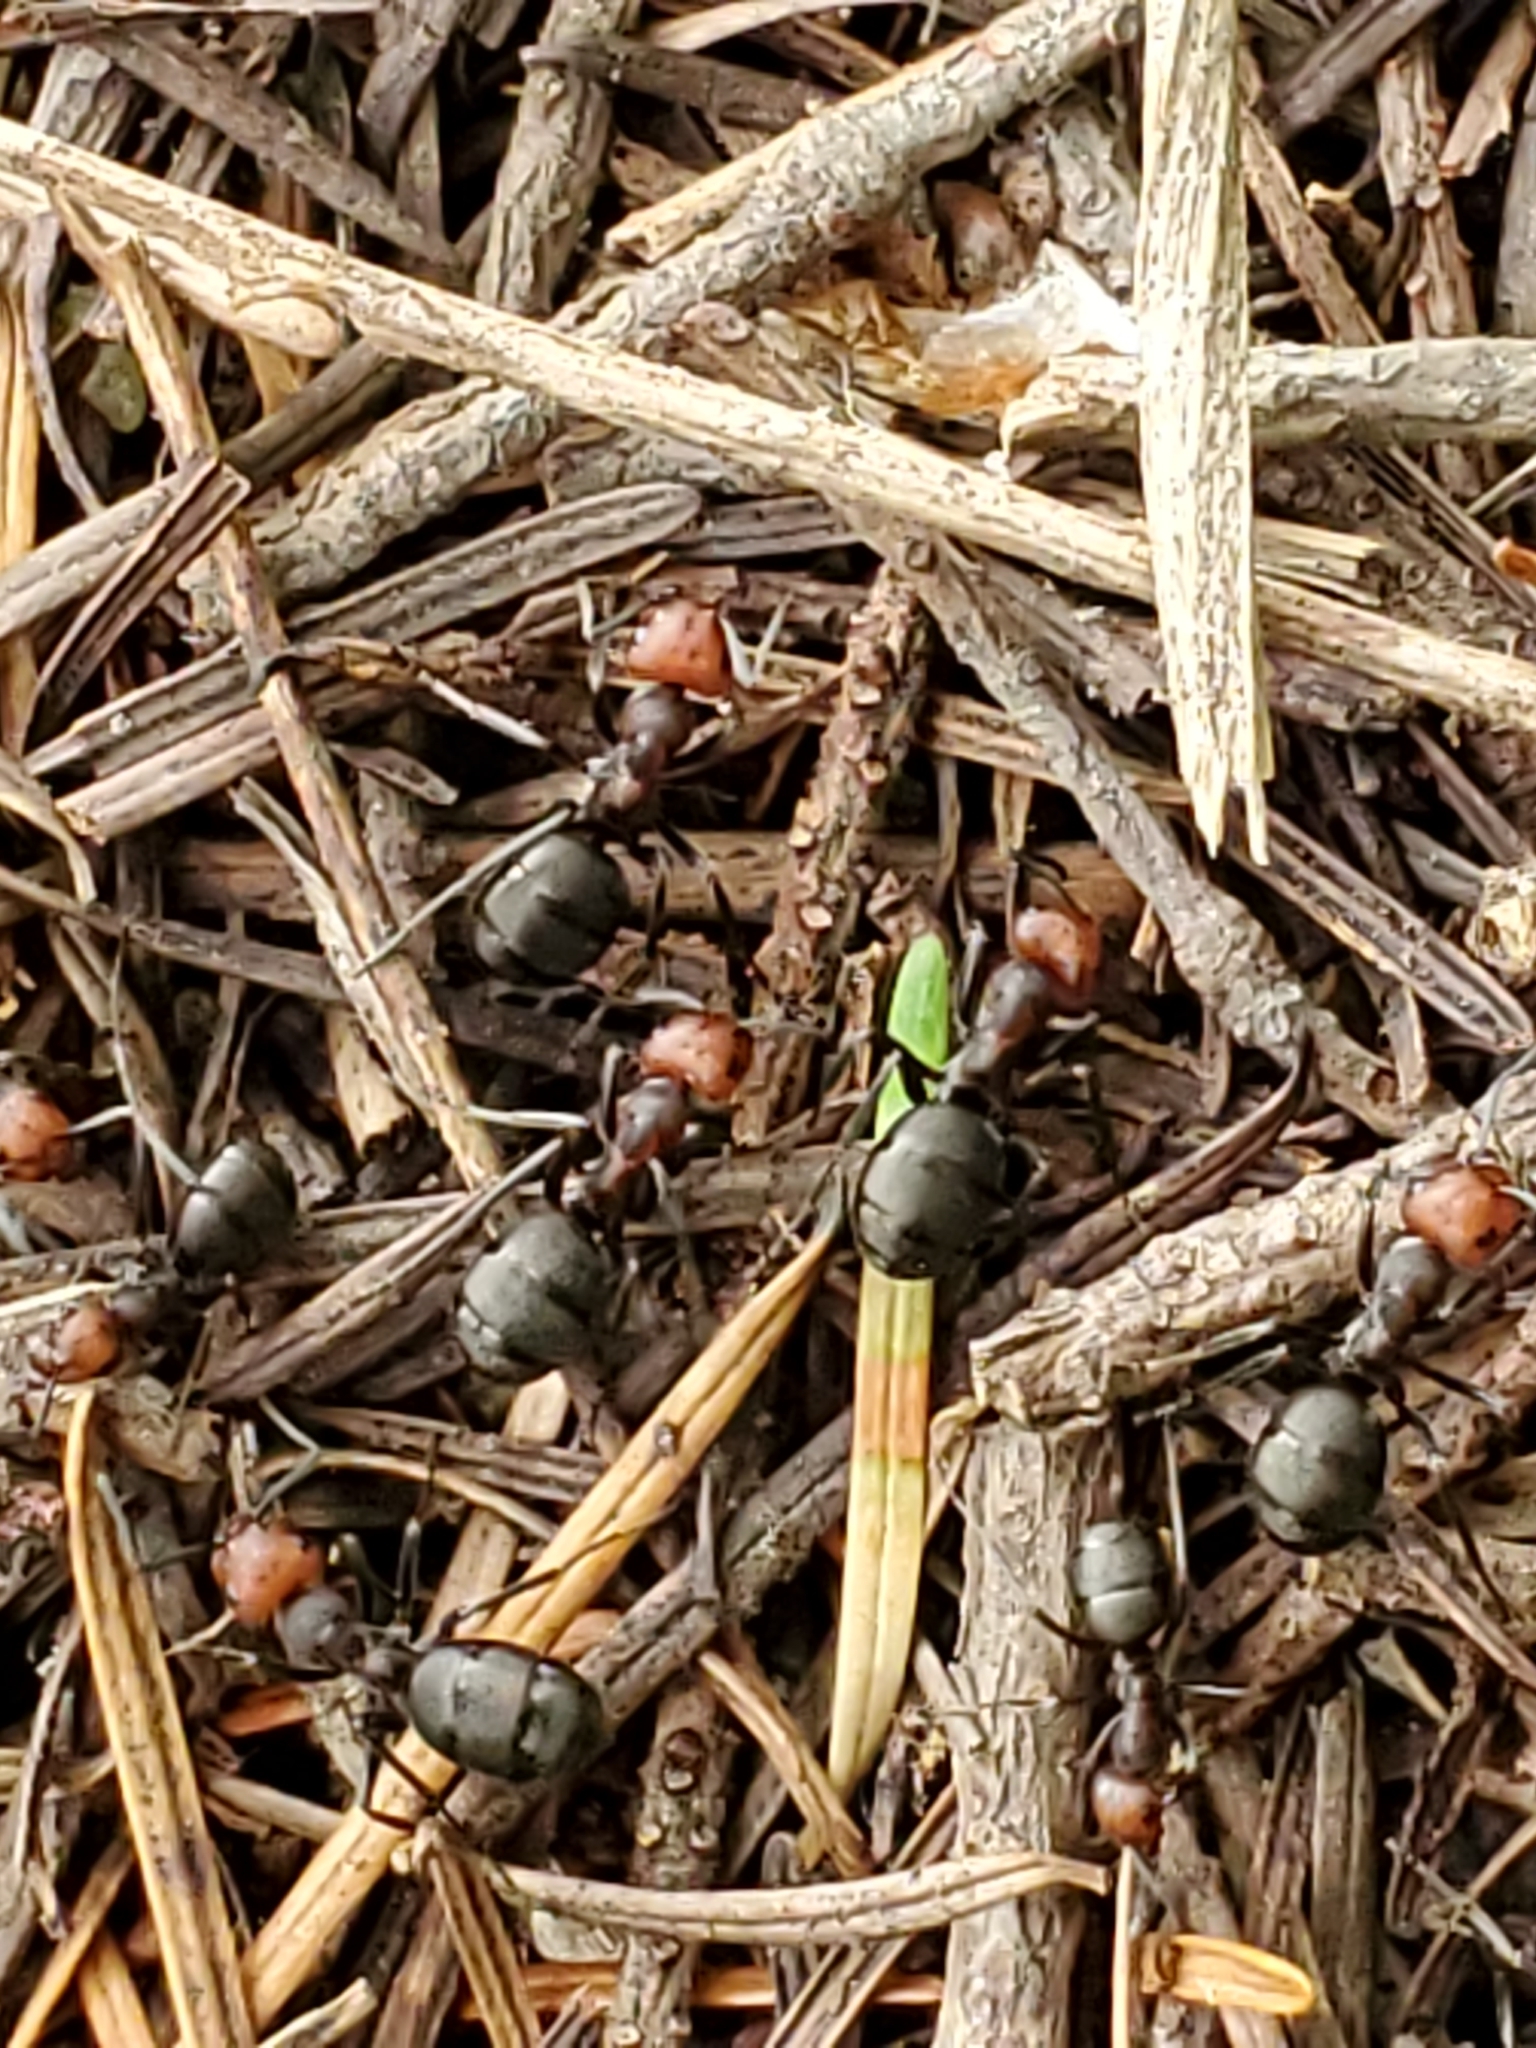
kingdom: Animalia
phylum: Arthropoda
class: Insecta
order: Hymenoptera
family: Formicidae
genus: Formica
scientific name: Formica obscuripes
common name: Western thatching ant
